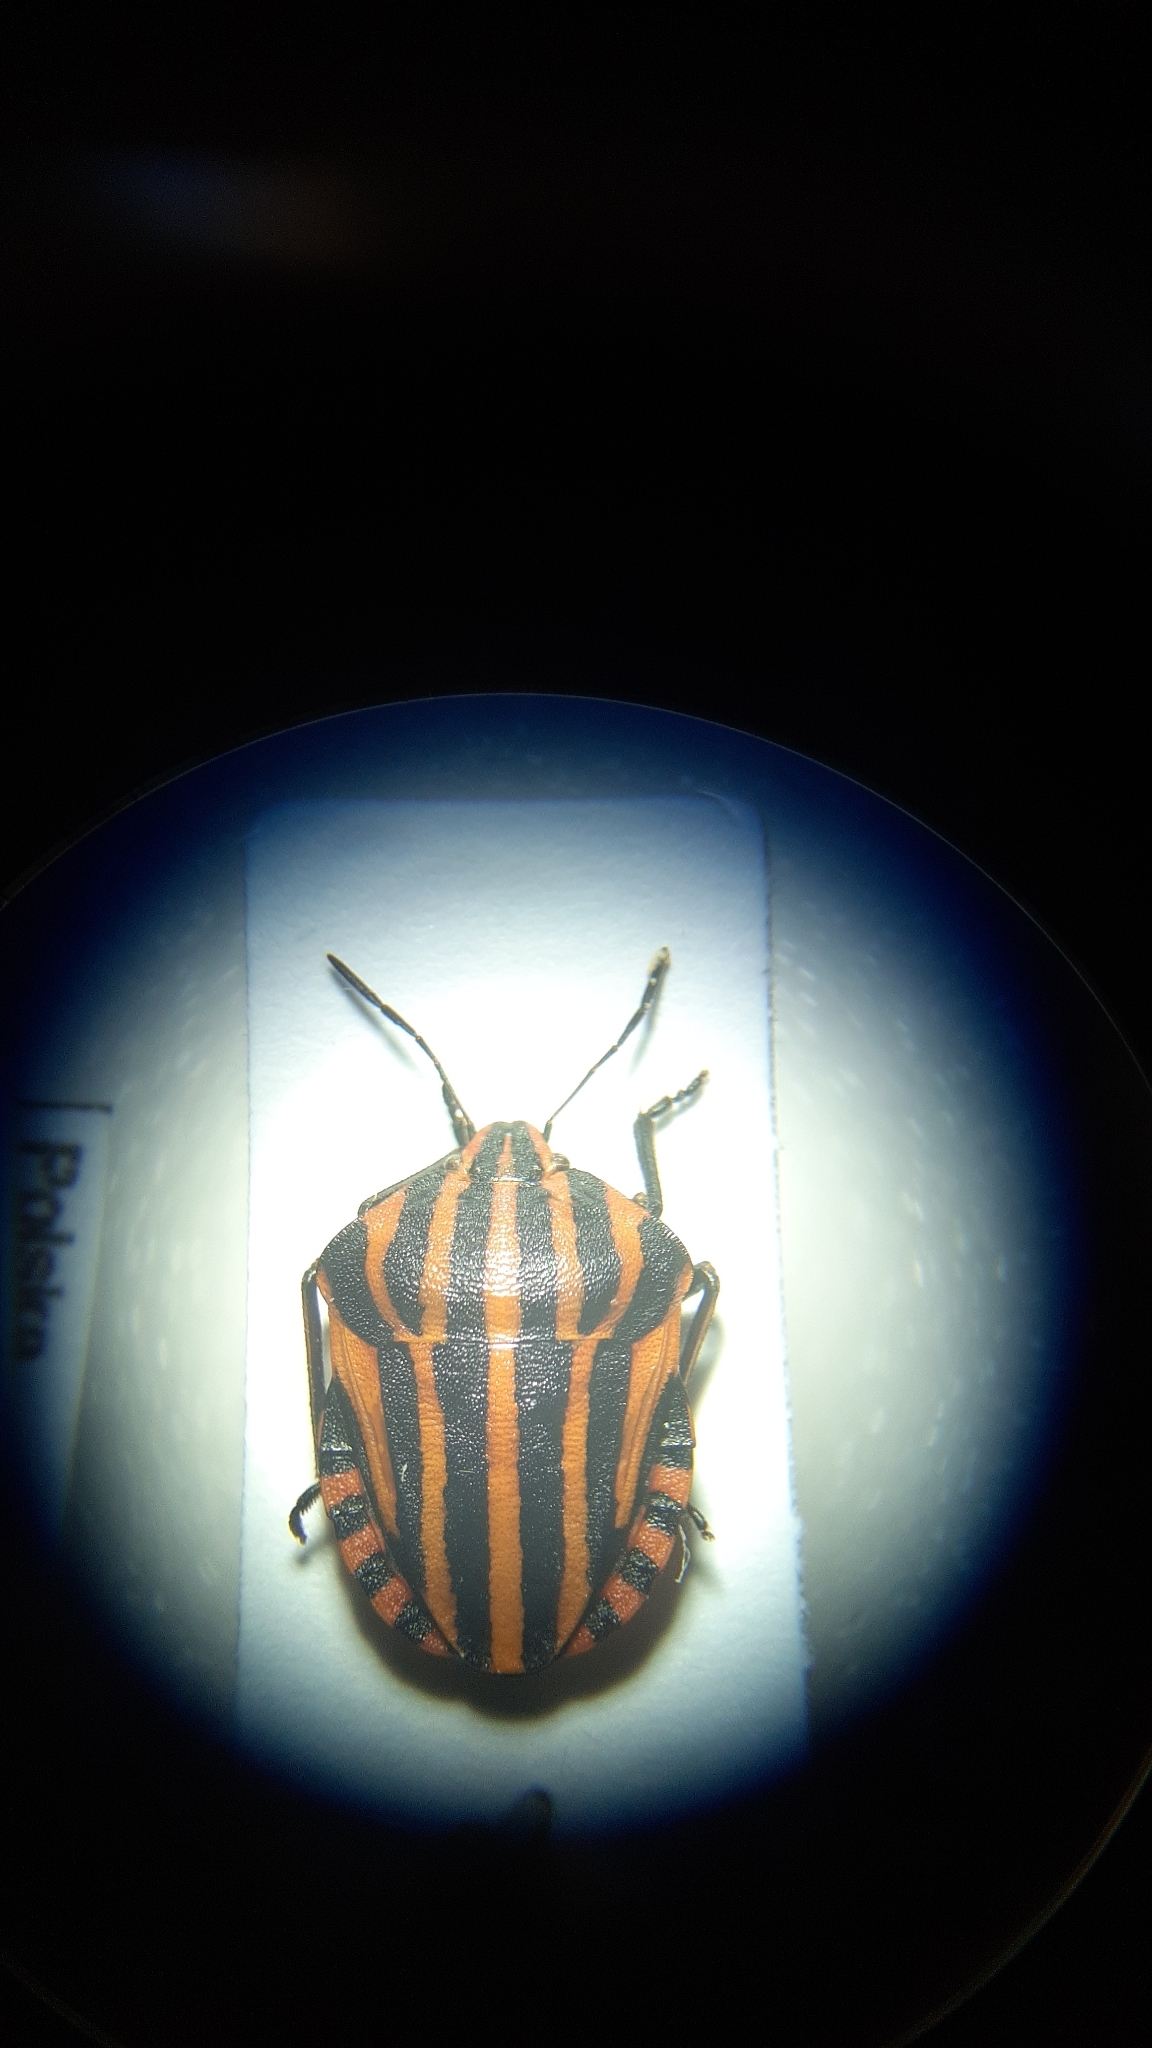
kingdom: Animalia
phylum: Arthropoda
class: Insecta
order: Hemiptera
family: Pentatomidae
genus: Graphosoma
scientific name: Graphosoma italicum
